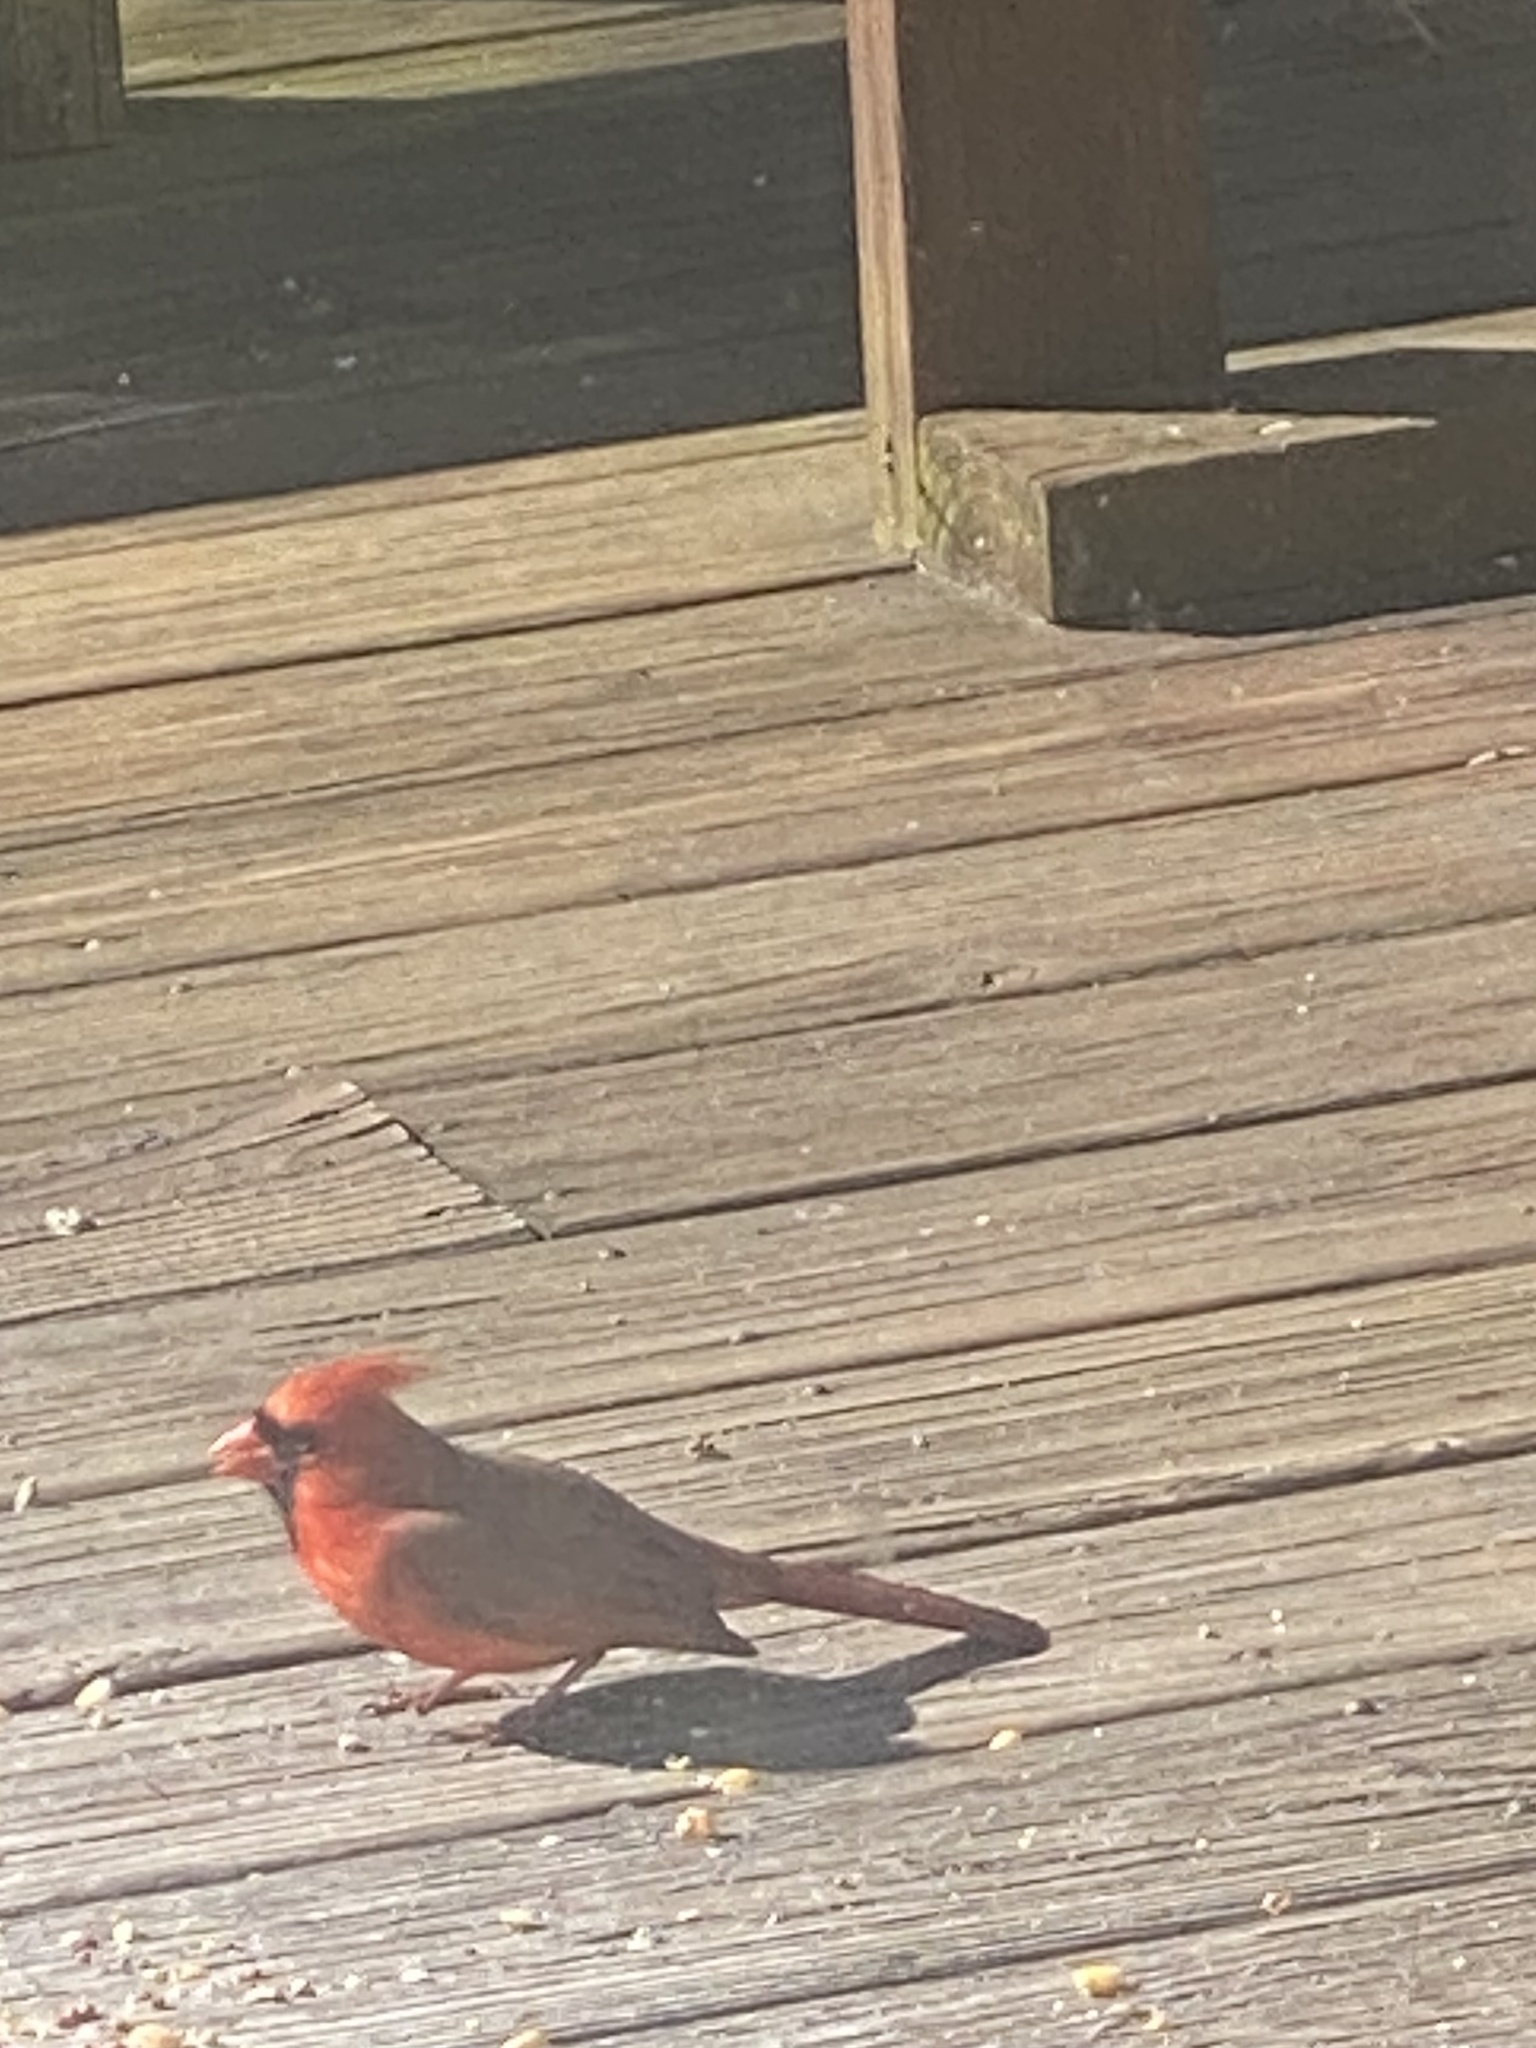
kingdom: Animalia
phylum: Chordata
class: Aves
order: Passeriformes
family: Cardinalidae
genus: Cardinalis
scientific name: Cardinalis cardinalis
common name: Northern cardinal
